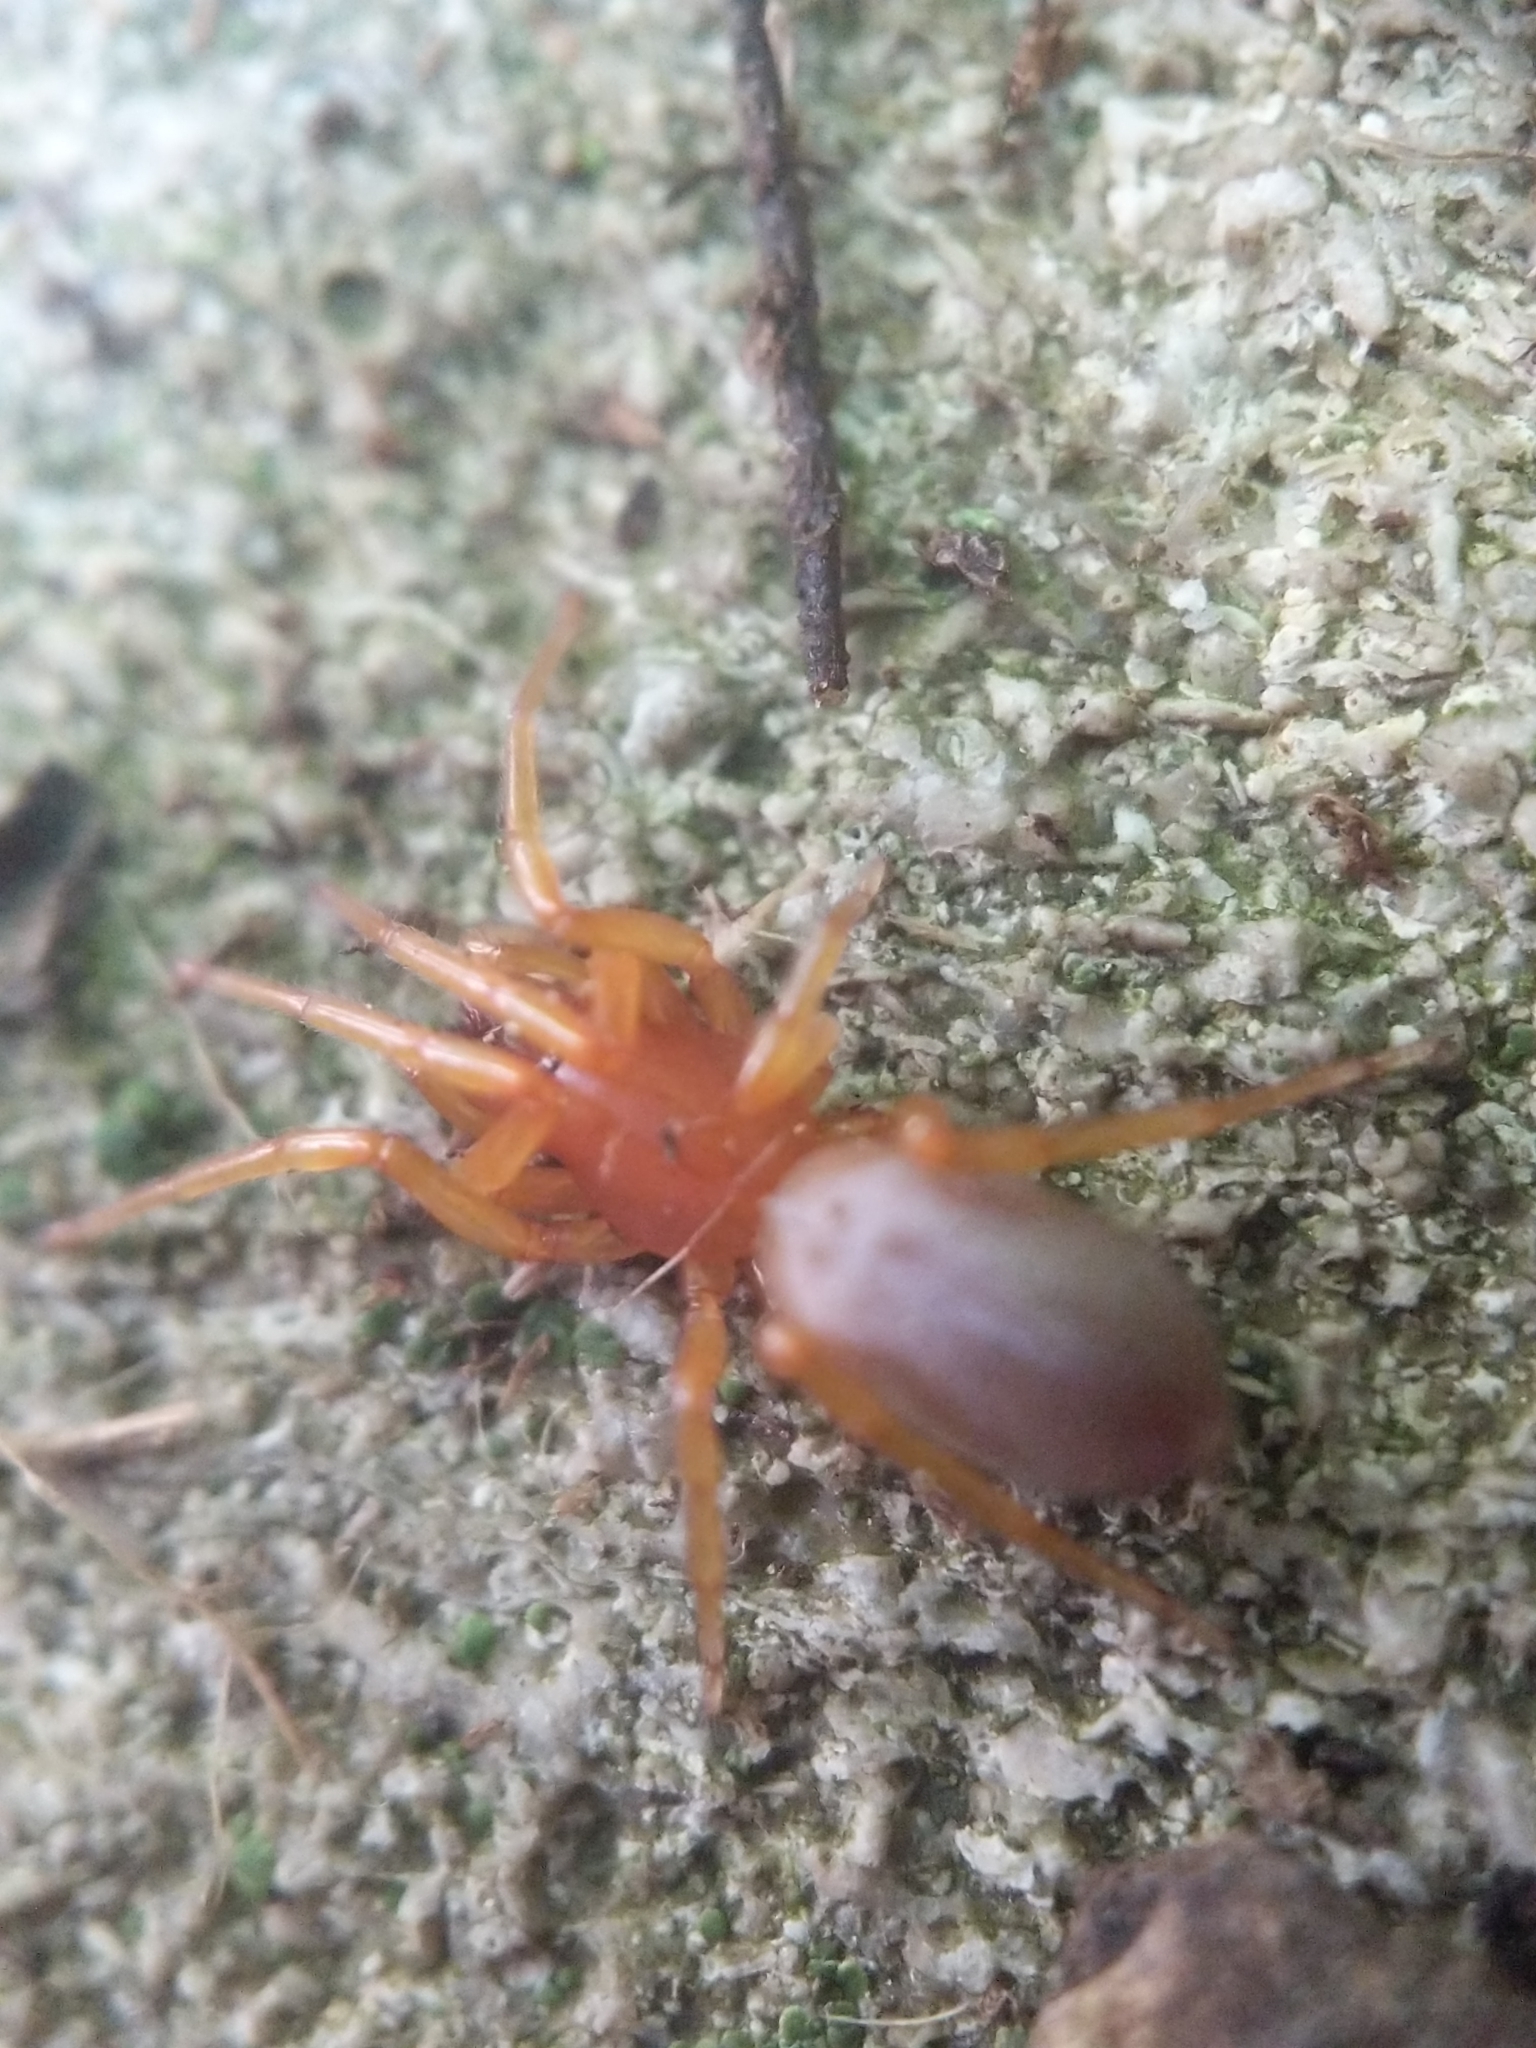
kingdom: Animalia
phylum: Arthropoda
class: Arachnida
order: Araneae
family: Dysderidae
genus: Dysdera
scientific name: Dysdera crocata
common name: Woodlouse spider
